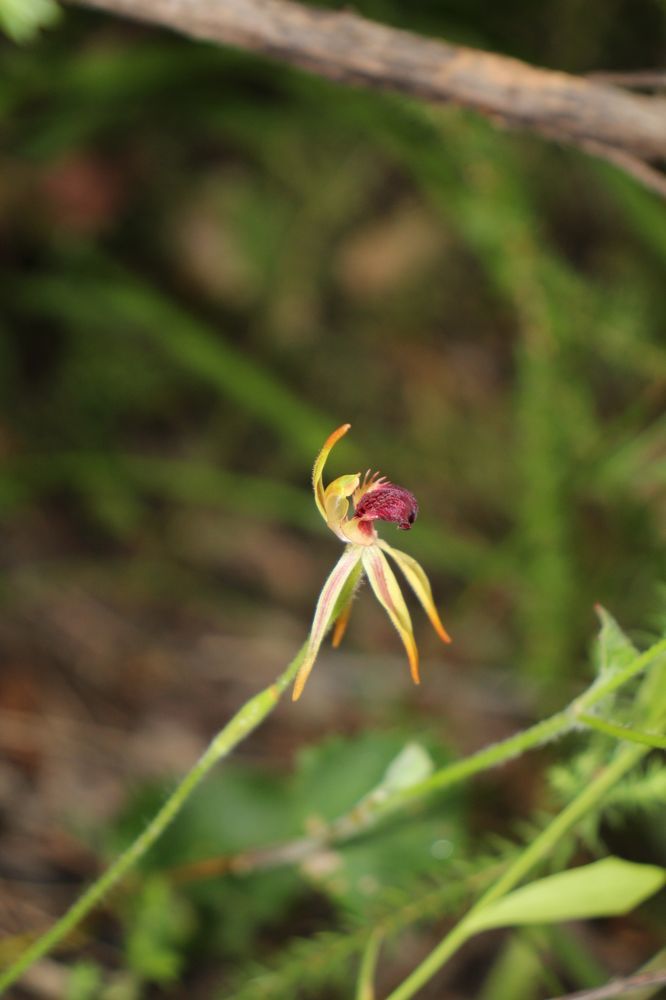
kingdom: Plantae
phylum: Tracheophyta
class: Liliopsida
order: Asparagales
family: Orchidaceae
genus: Caladenia
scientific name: Caladenia ensata
